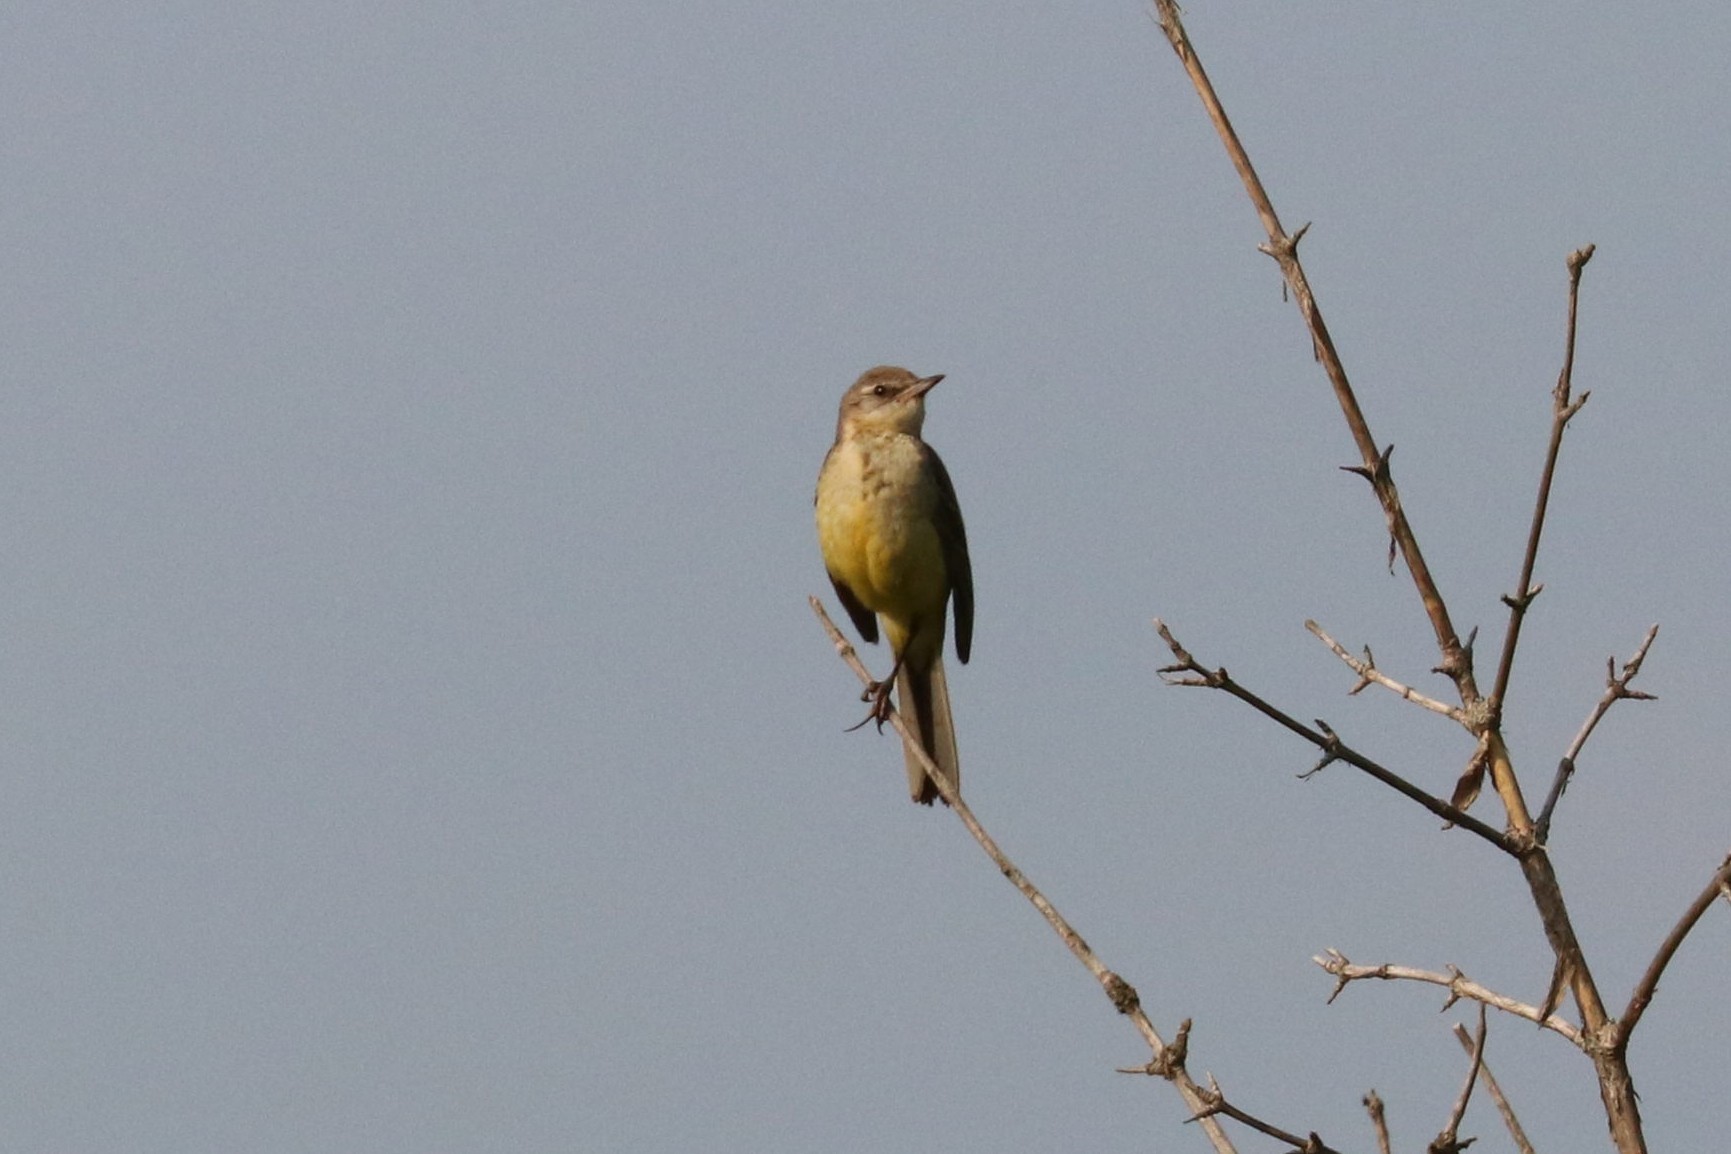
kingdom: Animalia
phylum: Chordata
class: Aves
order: Passeriformes
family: Motacillidae
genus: Motacilla
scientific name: Motacilla flava
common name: Western yellow wagtail
